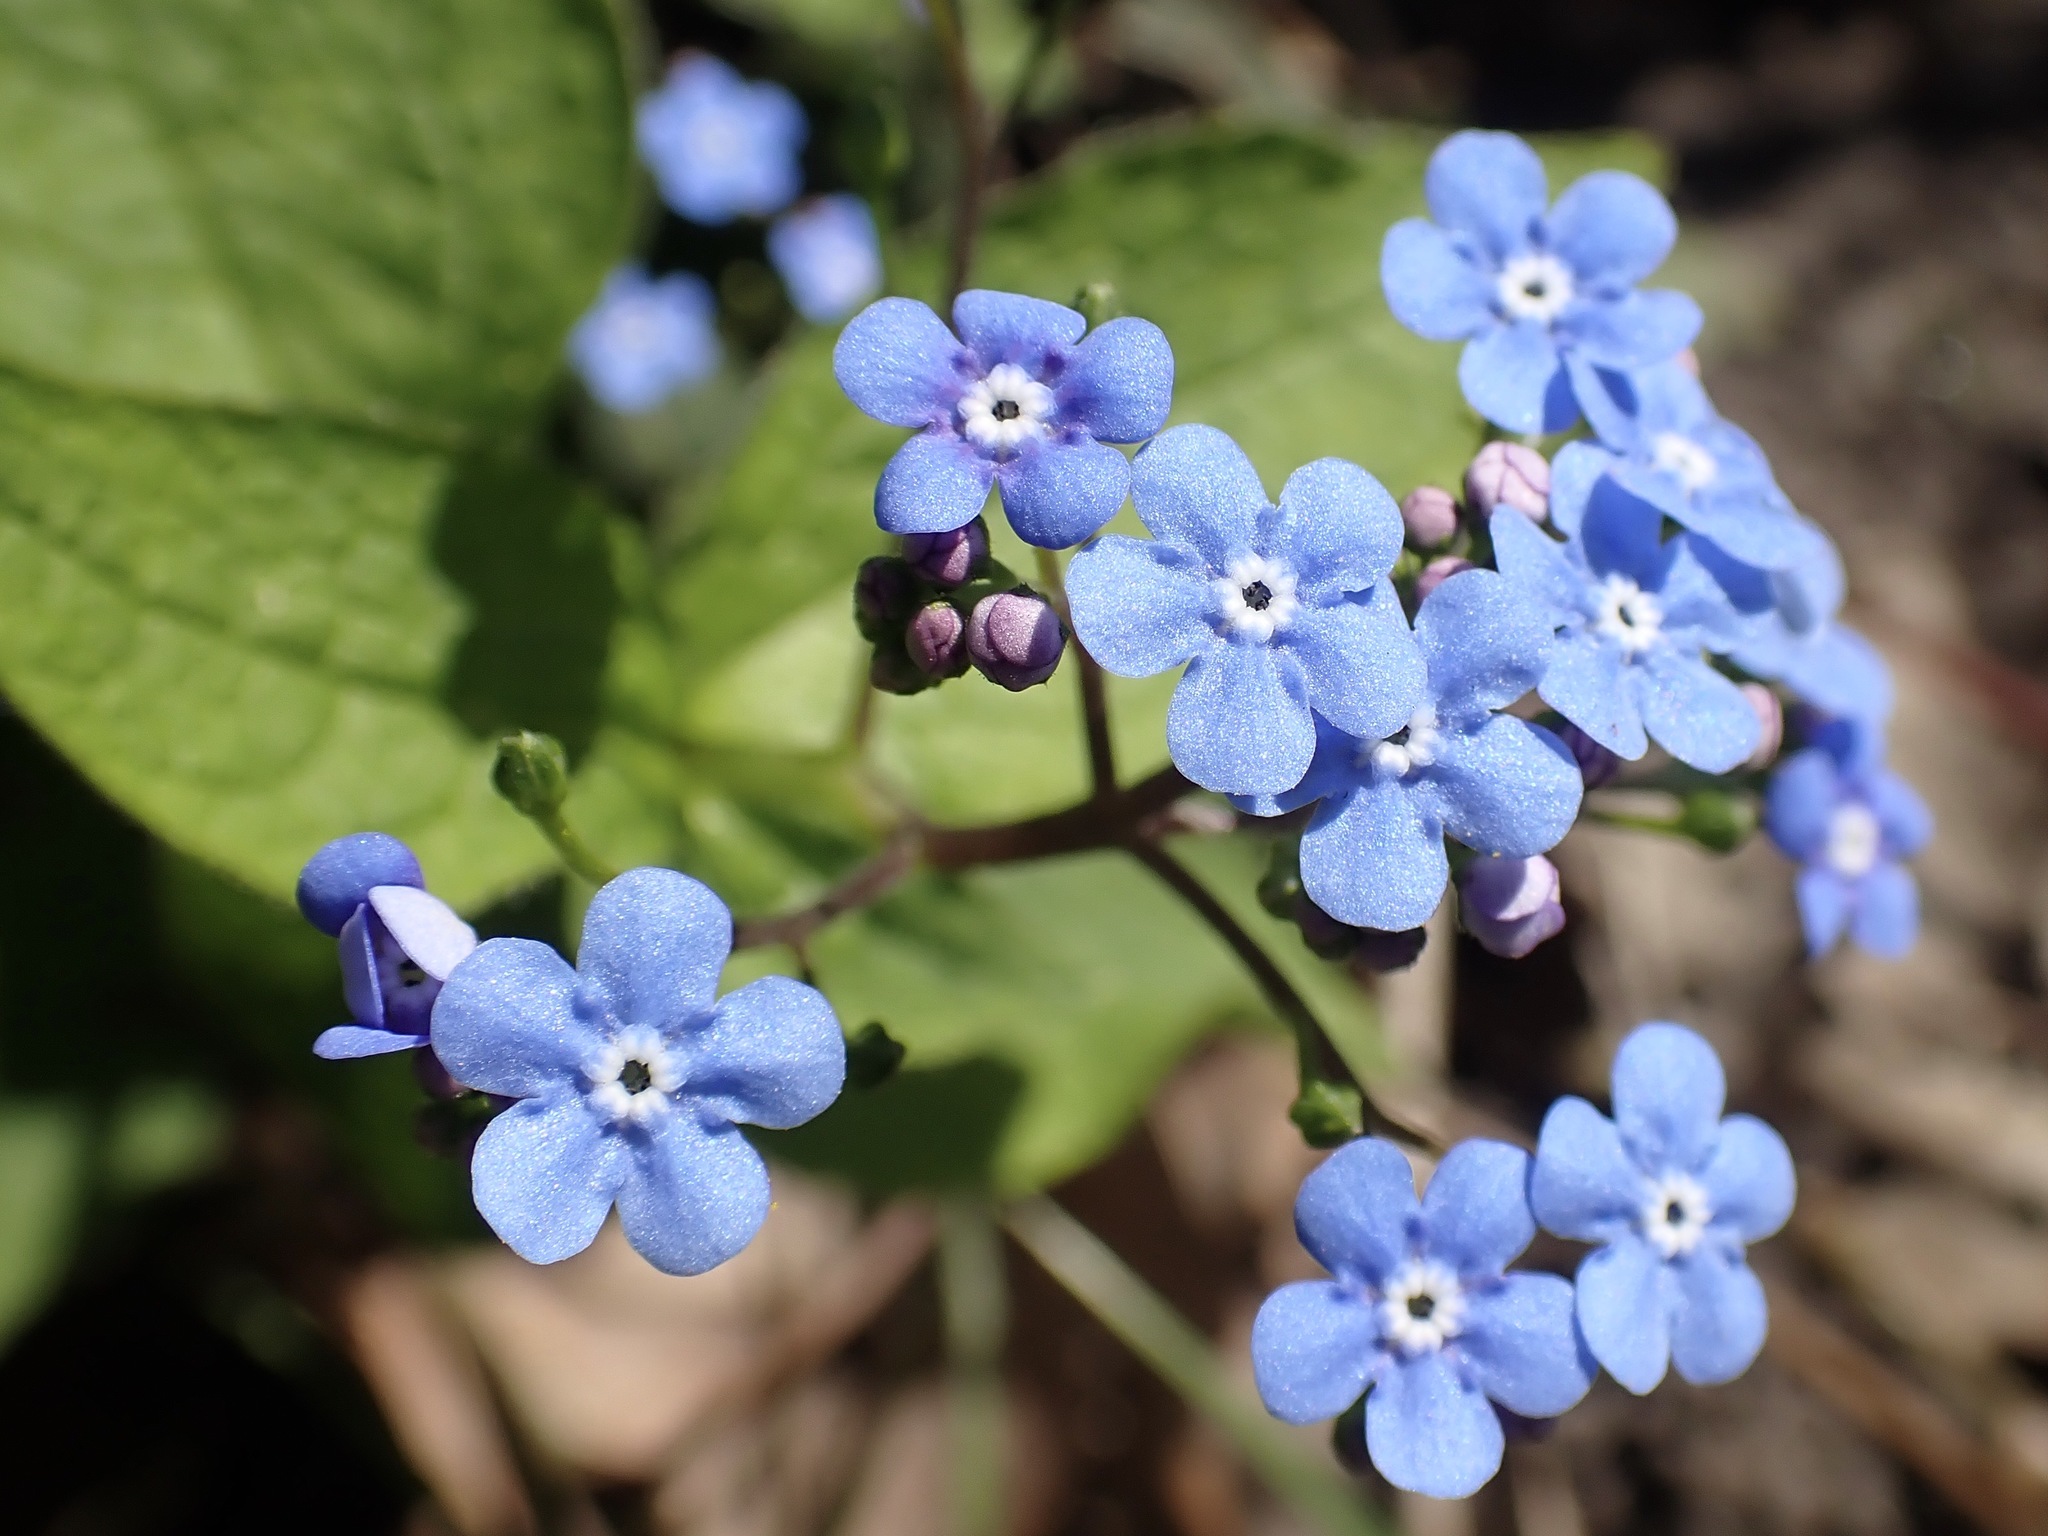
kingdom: Plantae
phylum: Tracheophyta
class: Magnoliopsida
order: Boraginales
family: Boraginaceae
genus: Brunnera
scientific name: Brunnera macrophylla
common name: Great forget-me-not
